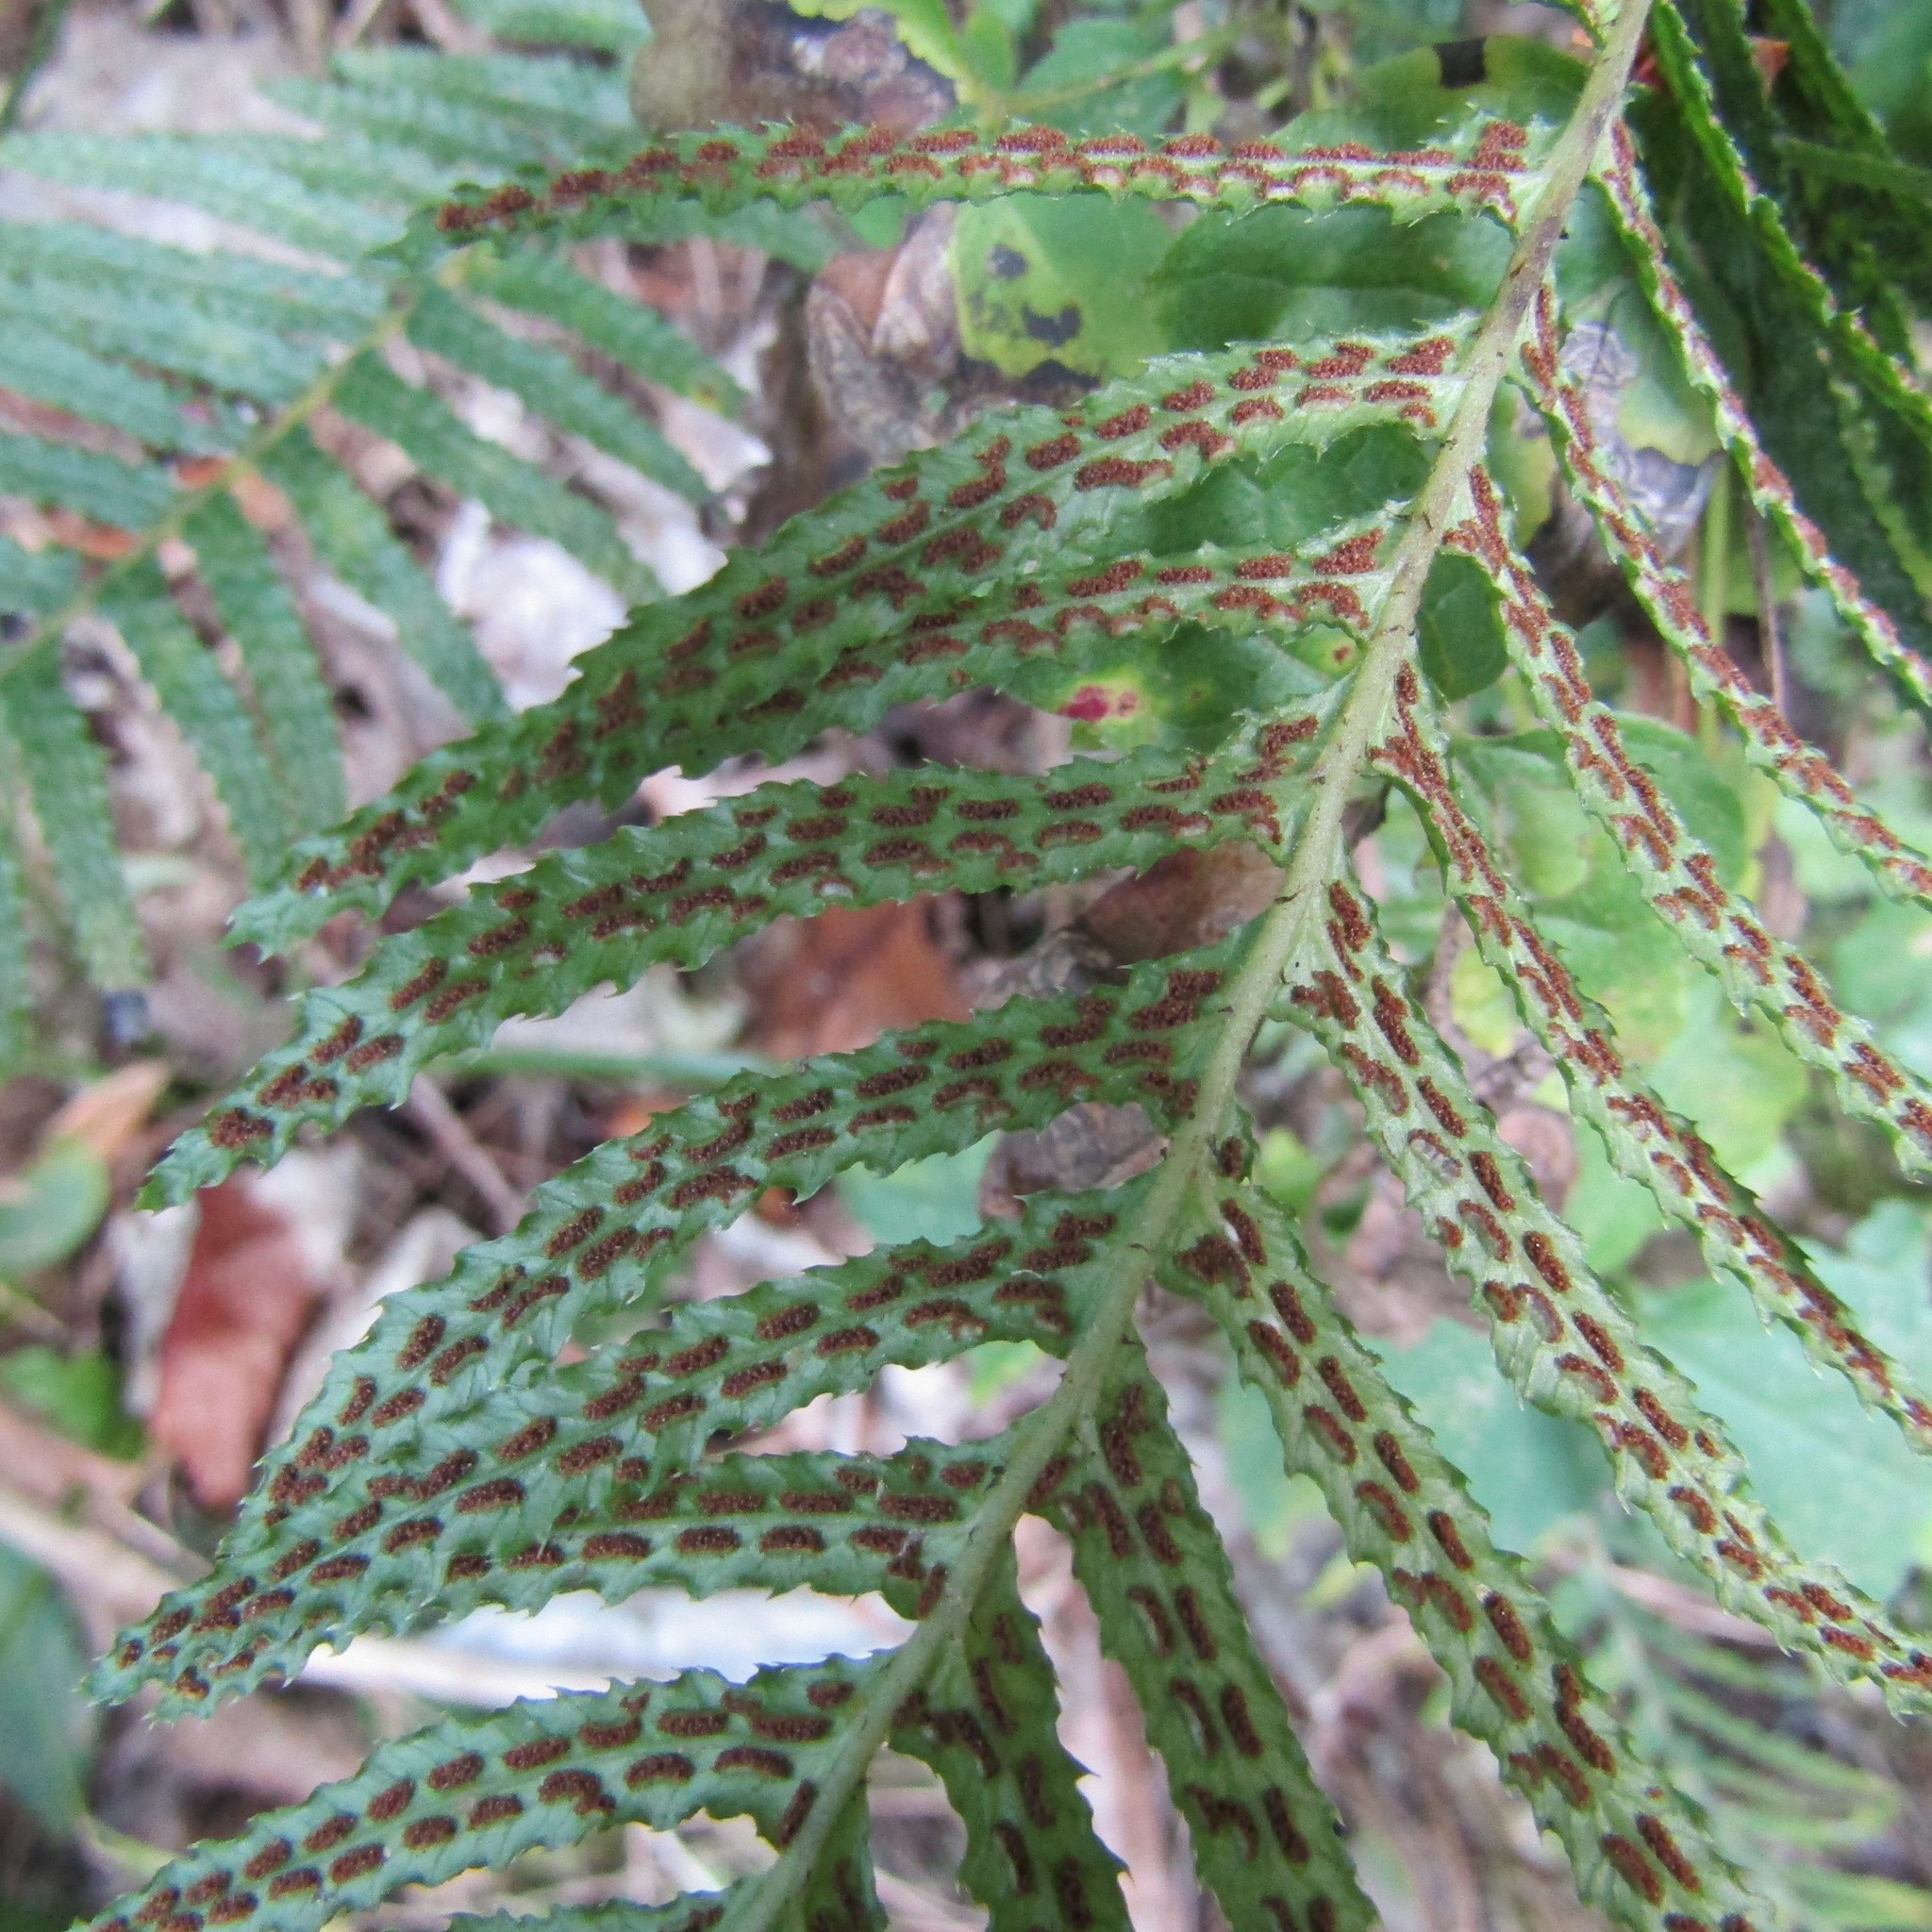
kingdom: Plantae
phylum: Tracheophyta
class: Polypodiopsida
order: Polypodiales
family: Blechnaceae
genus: Doodia
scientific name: Doodia australis
